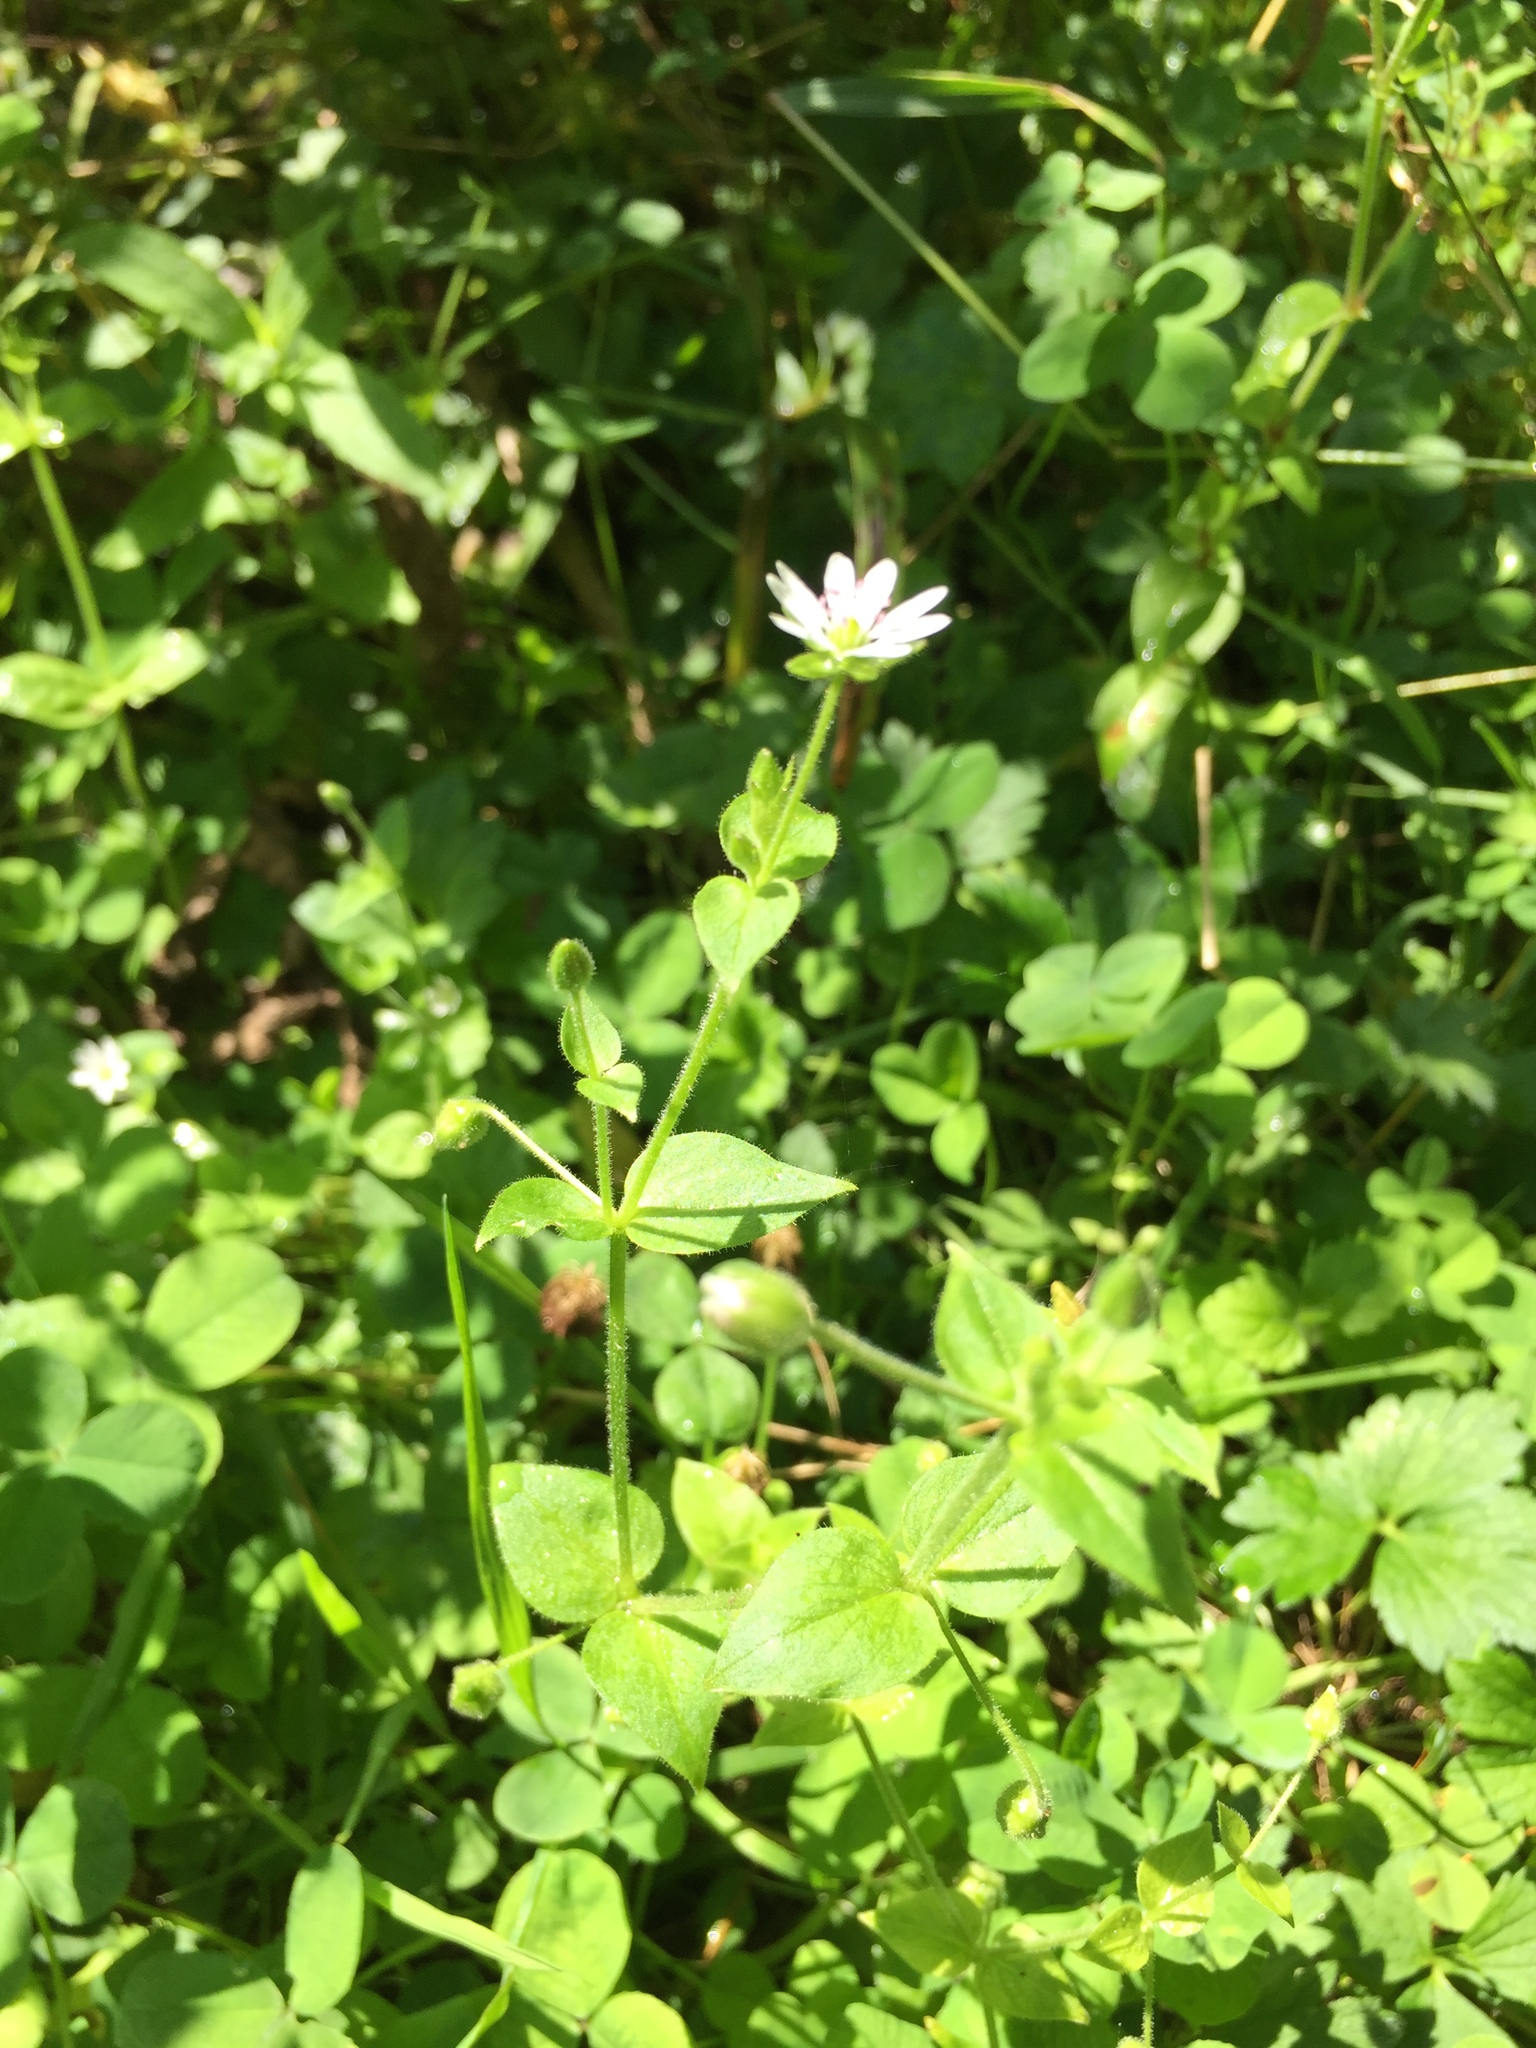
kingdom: Plantae
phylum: Tracheophyta
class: Magnoliopsida
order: Caryophyllales
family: Caryophyllaceae
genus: Stellaria
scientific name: Stellaria aquatica
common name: Water chickweed
